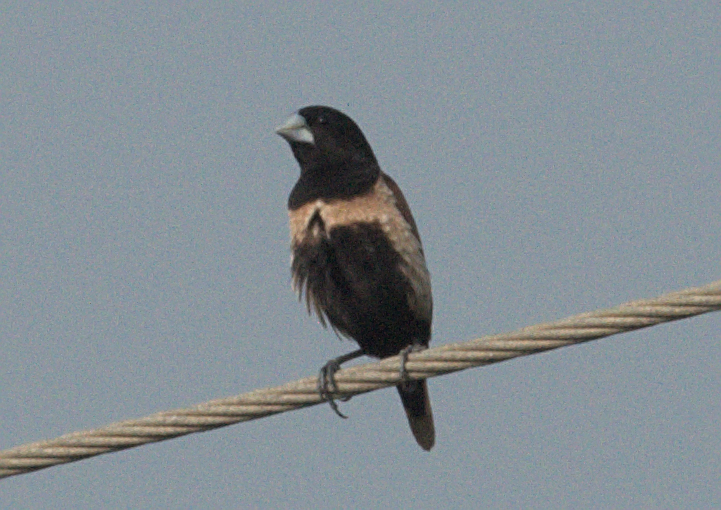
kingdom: Animalia
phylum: Chordata
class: Aves
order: Passeriformes
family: Estrildidae
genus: Lonchura
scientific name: Lonchura malacca
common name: Tricolored munia
